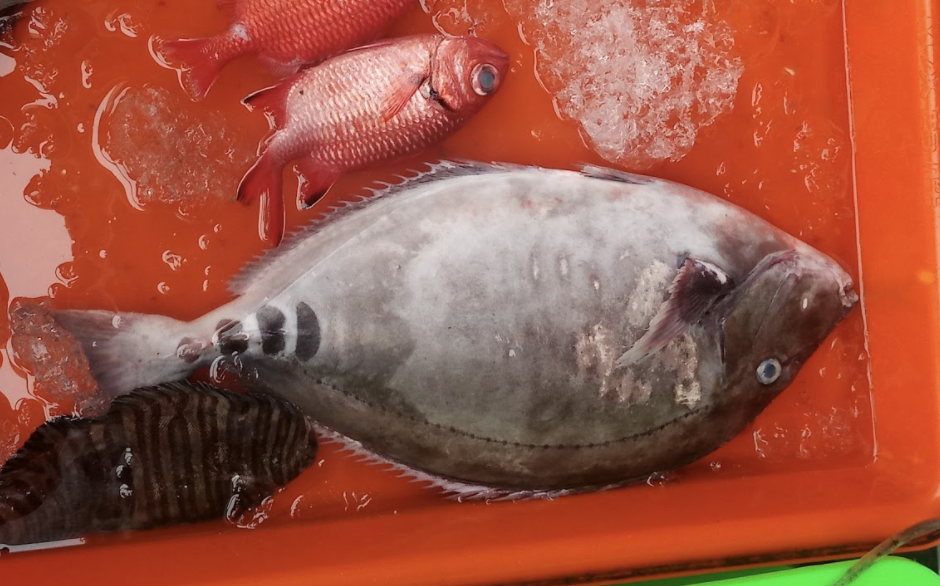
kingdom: Animalia
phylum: Chordata
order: Perciformes
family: Acanthuridae
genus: Prionurus
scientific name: Prionurus scalprum
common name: Japanese sawtail
